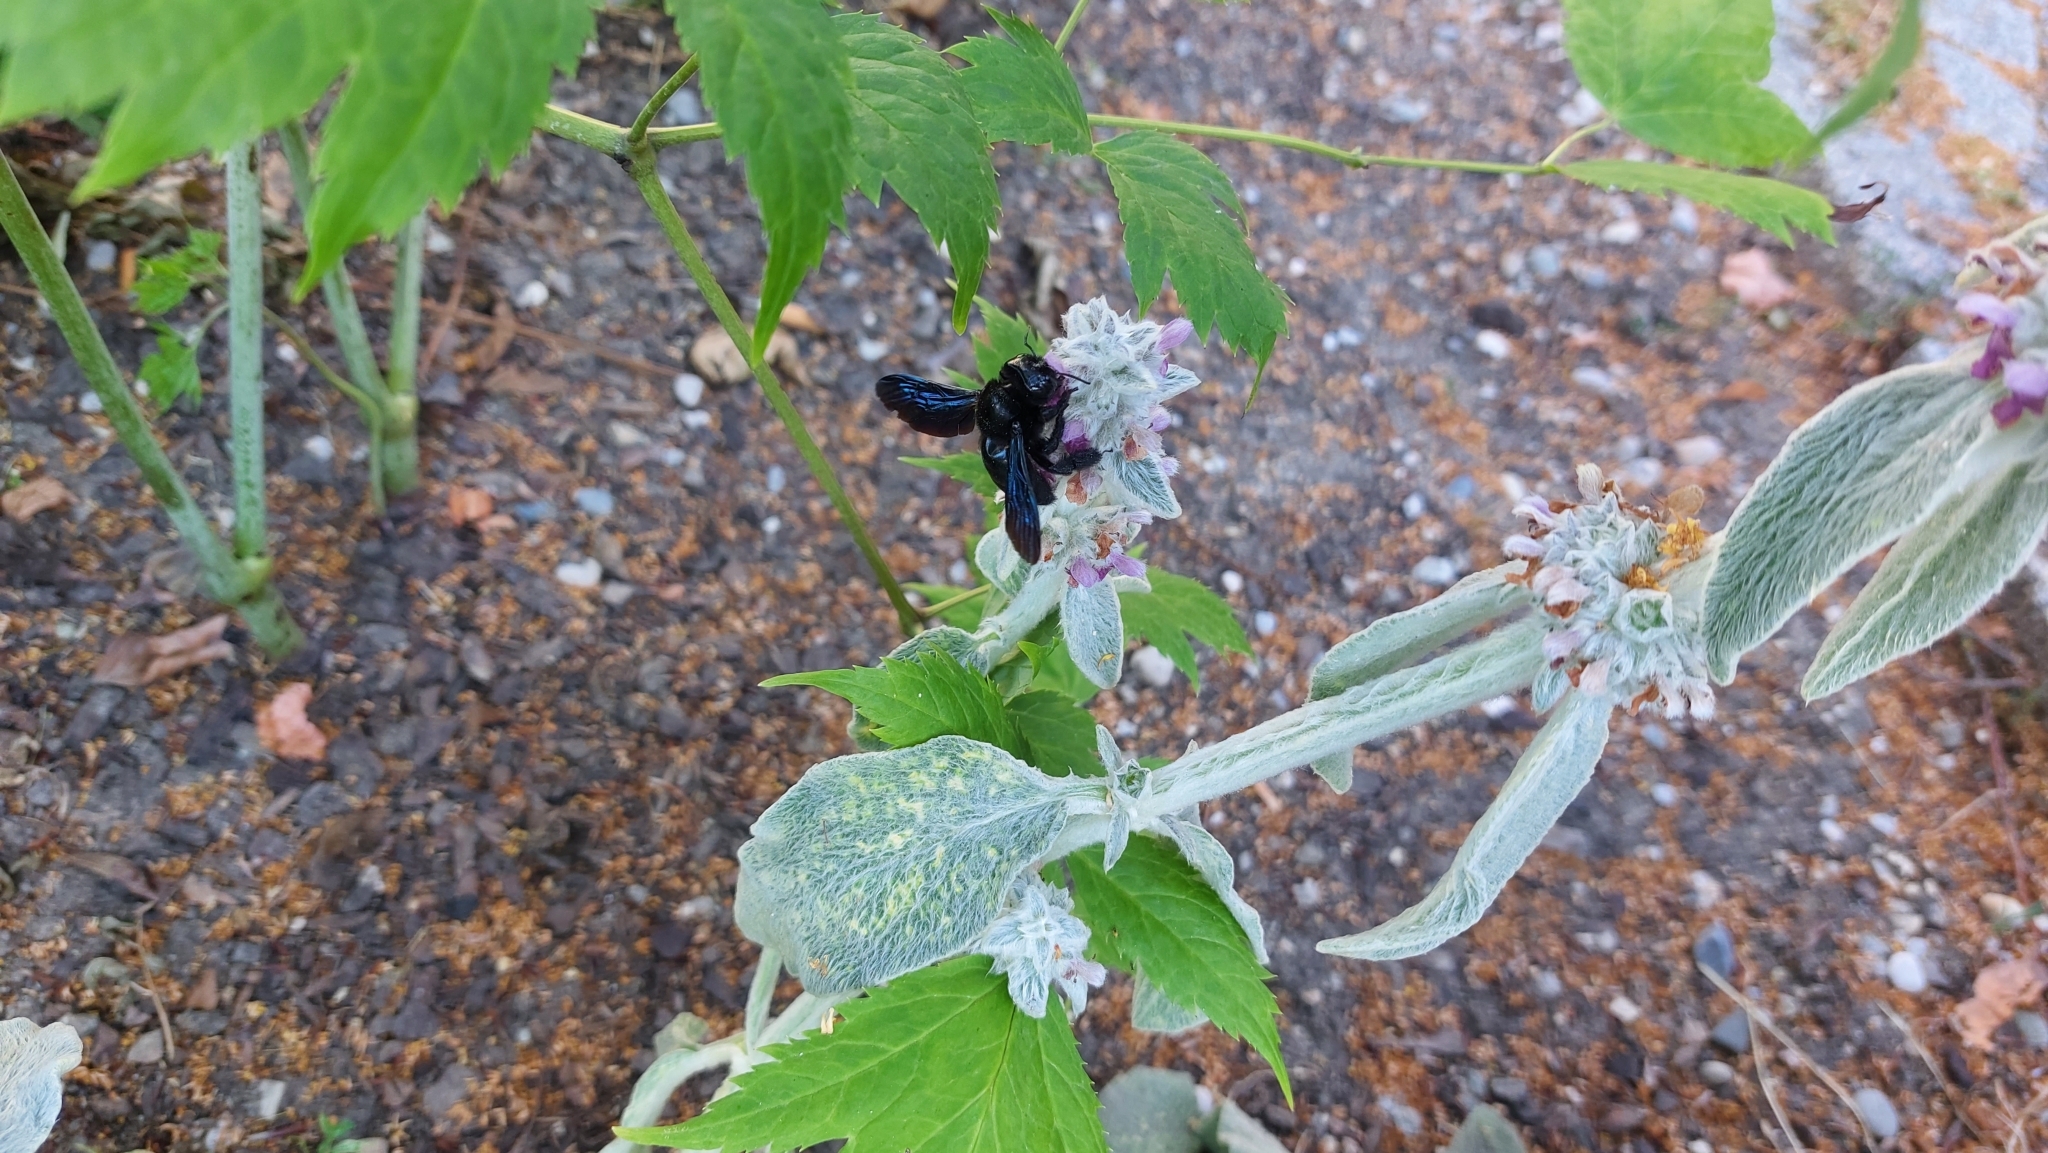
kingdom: Animalia
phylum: Arthropoda
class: Insecta
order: Hymenoptera
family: Apidae
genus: Xylocopa
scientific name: Xylocopa
